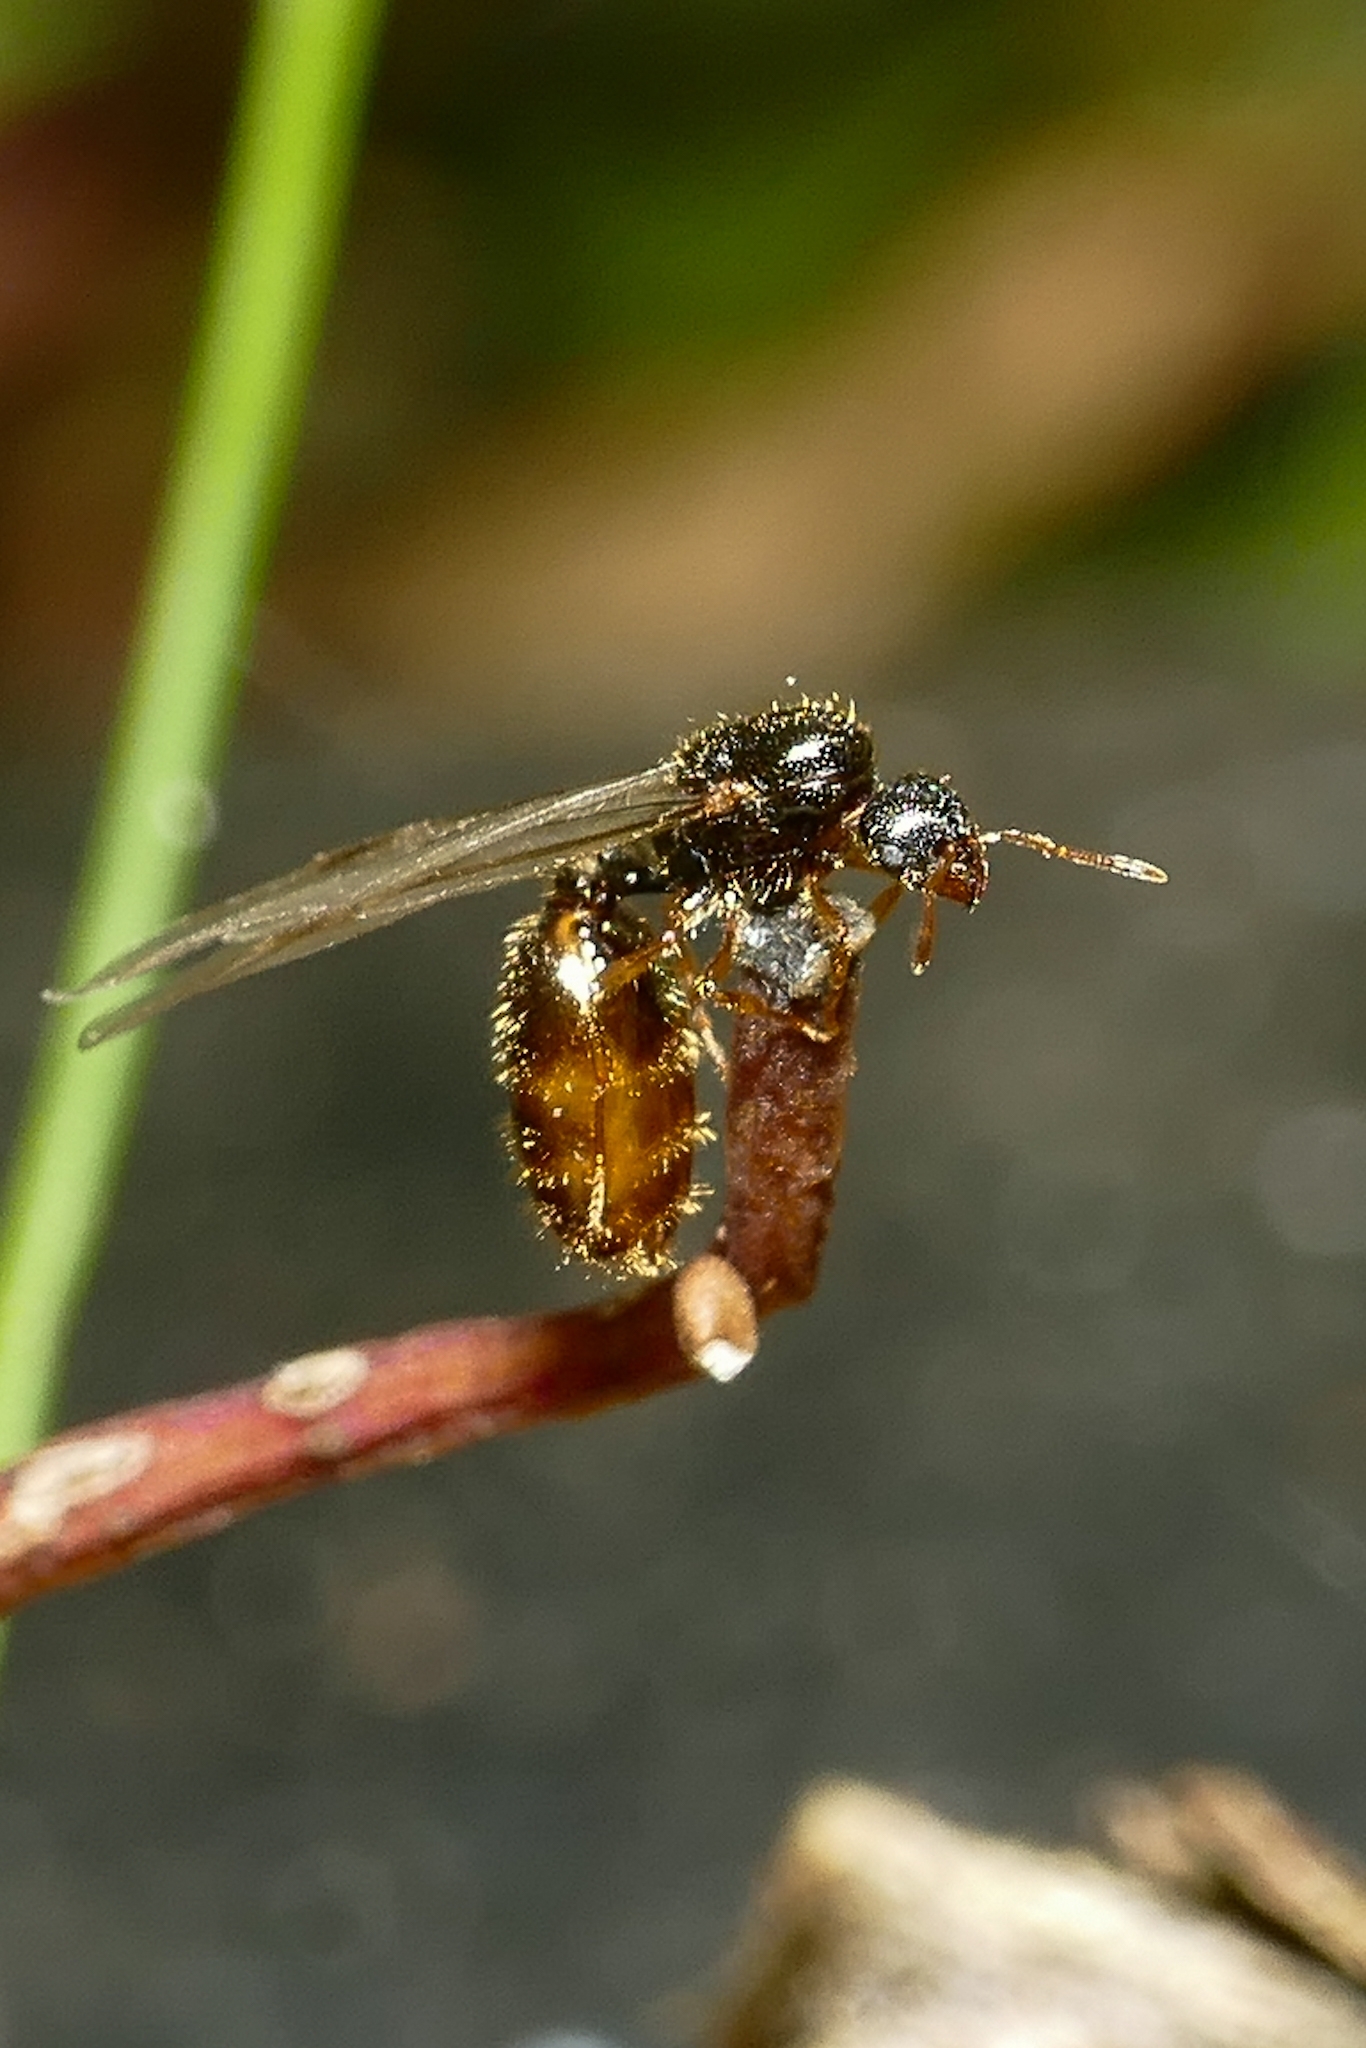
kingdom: Animalia
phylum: Arthropoda
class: Insecta
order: Hymenoptera
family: Formicidae
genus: Solenopsis
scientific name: Solenopsis fugax
